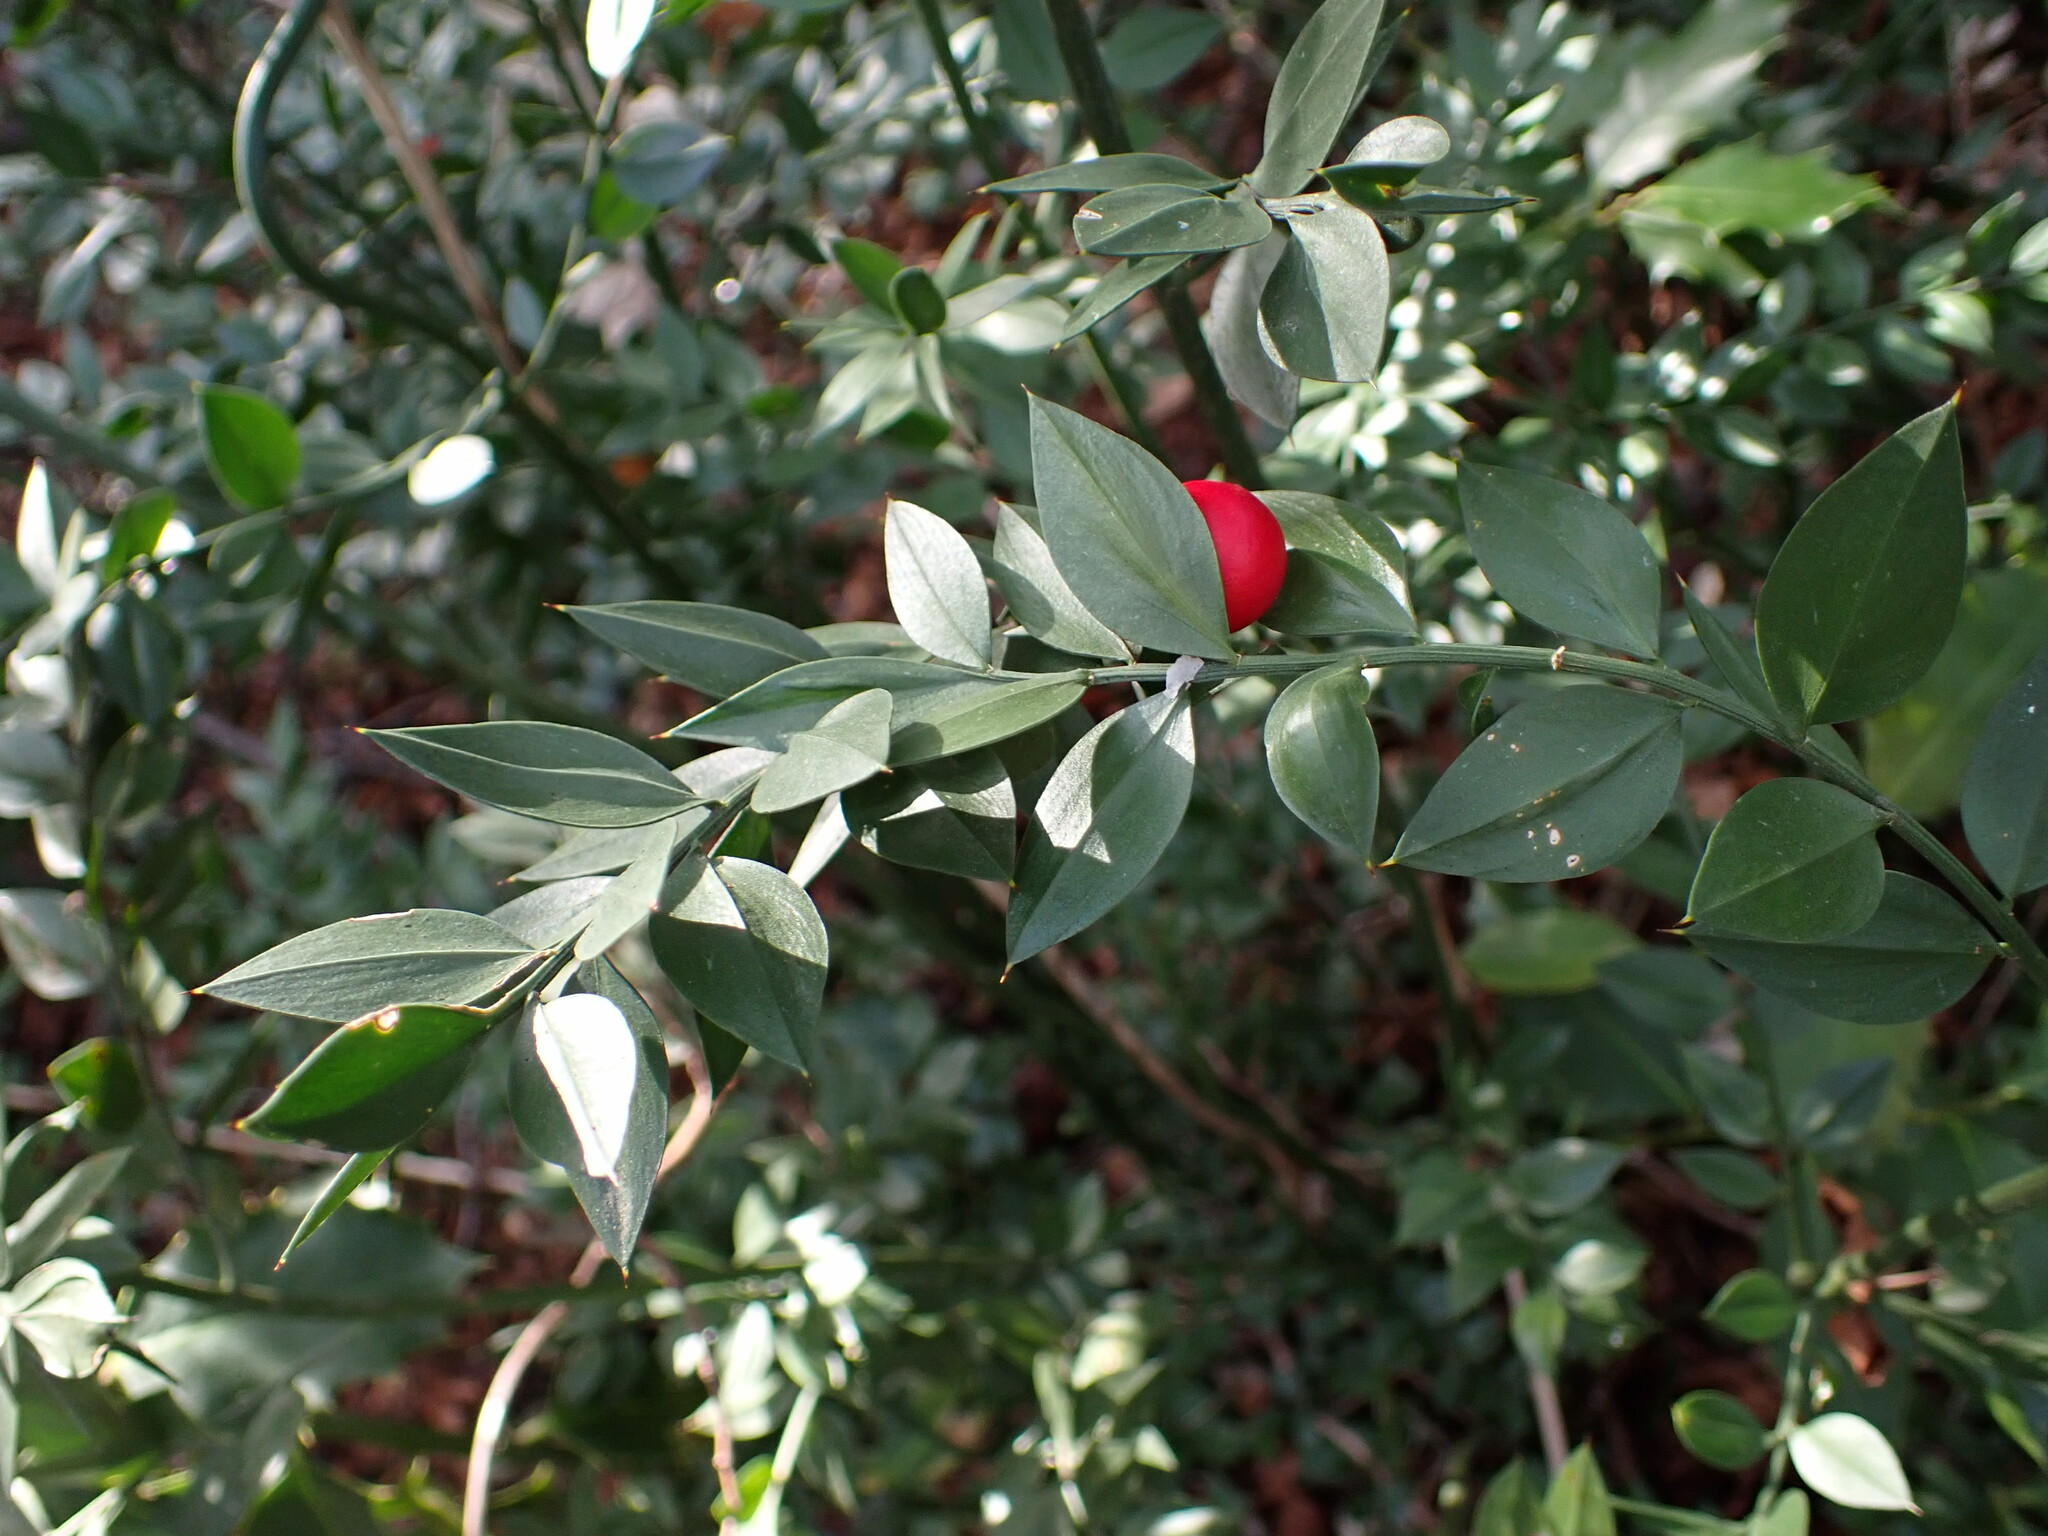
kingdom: Plantae
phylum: Tracheophyta
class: Liliopsida
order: Asparagales
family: Asparagaceae
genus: Ruscus
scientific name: Ruscus aculeatus
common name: Butcher's-broom
